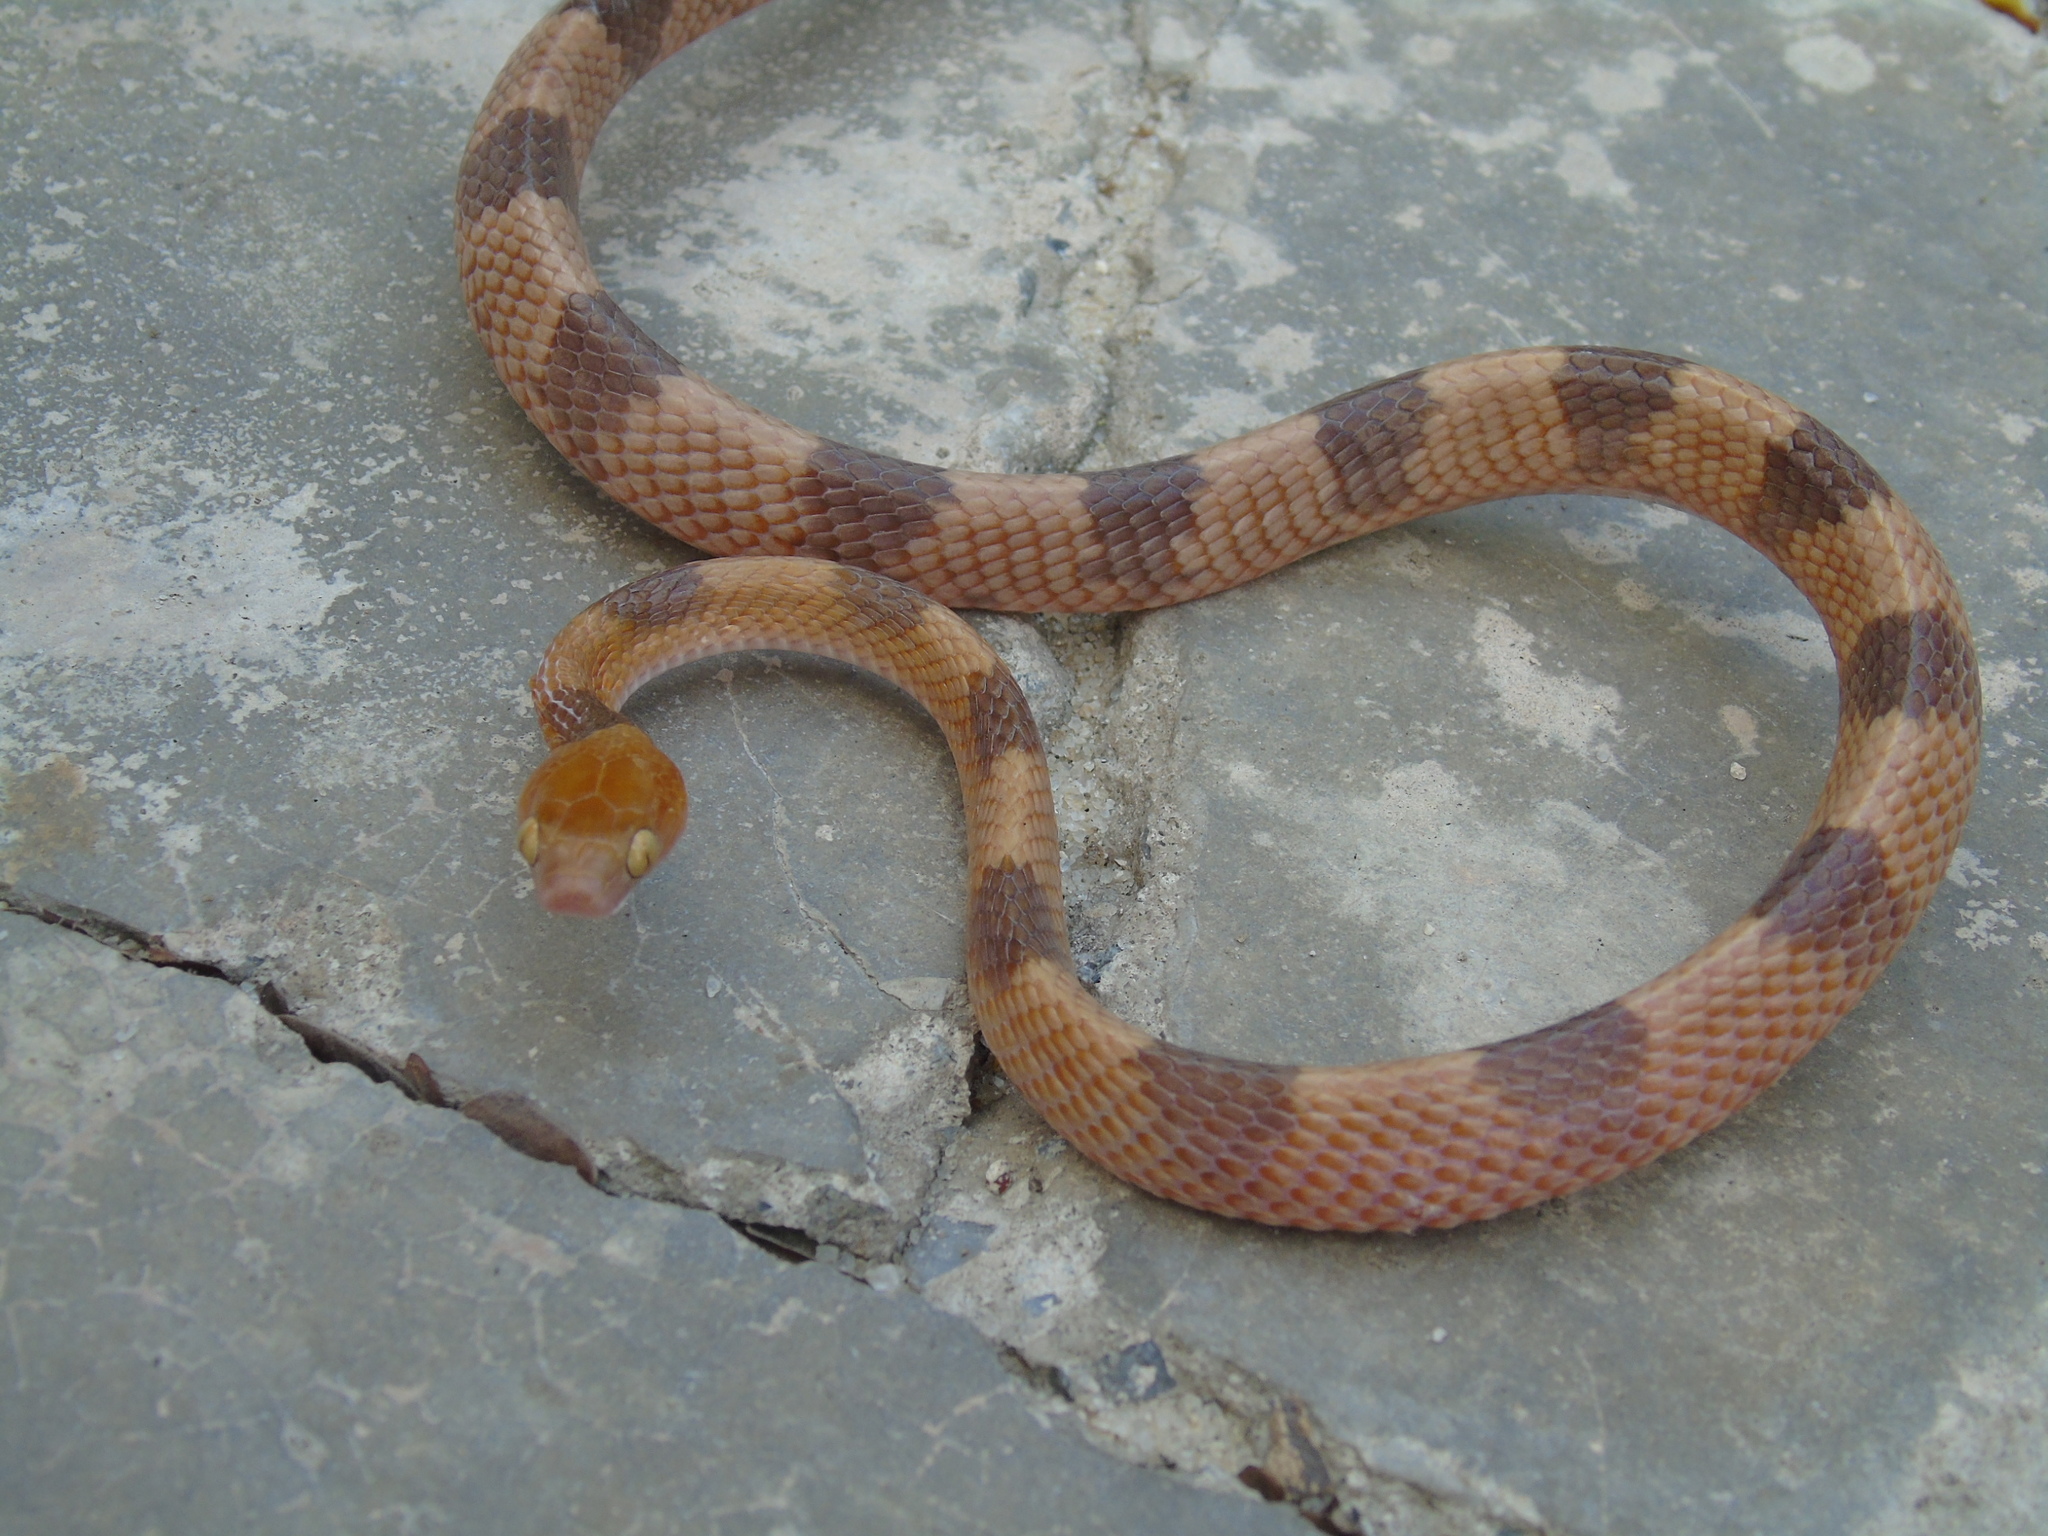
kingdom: Animalia
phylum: Chordata
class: Squamata
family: Colubridae
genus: Telescopus
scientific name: Telescopus semiannulatus
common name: Common tiger snake
